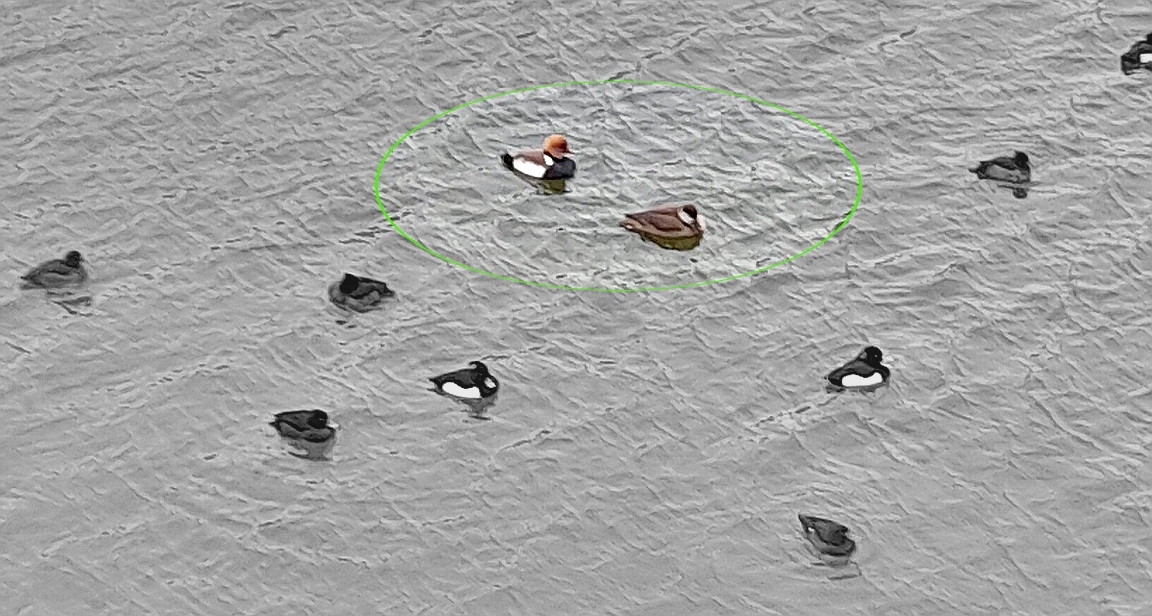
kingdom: Animalia
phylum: Chordata
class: Aves
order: Anseriformes
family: Anatidae
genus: Netta
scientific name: Netta rufina
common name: Red-crested pochard
